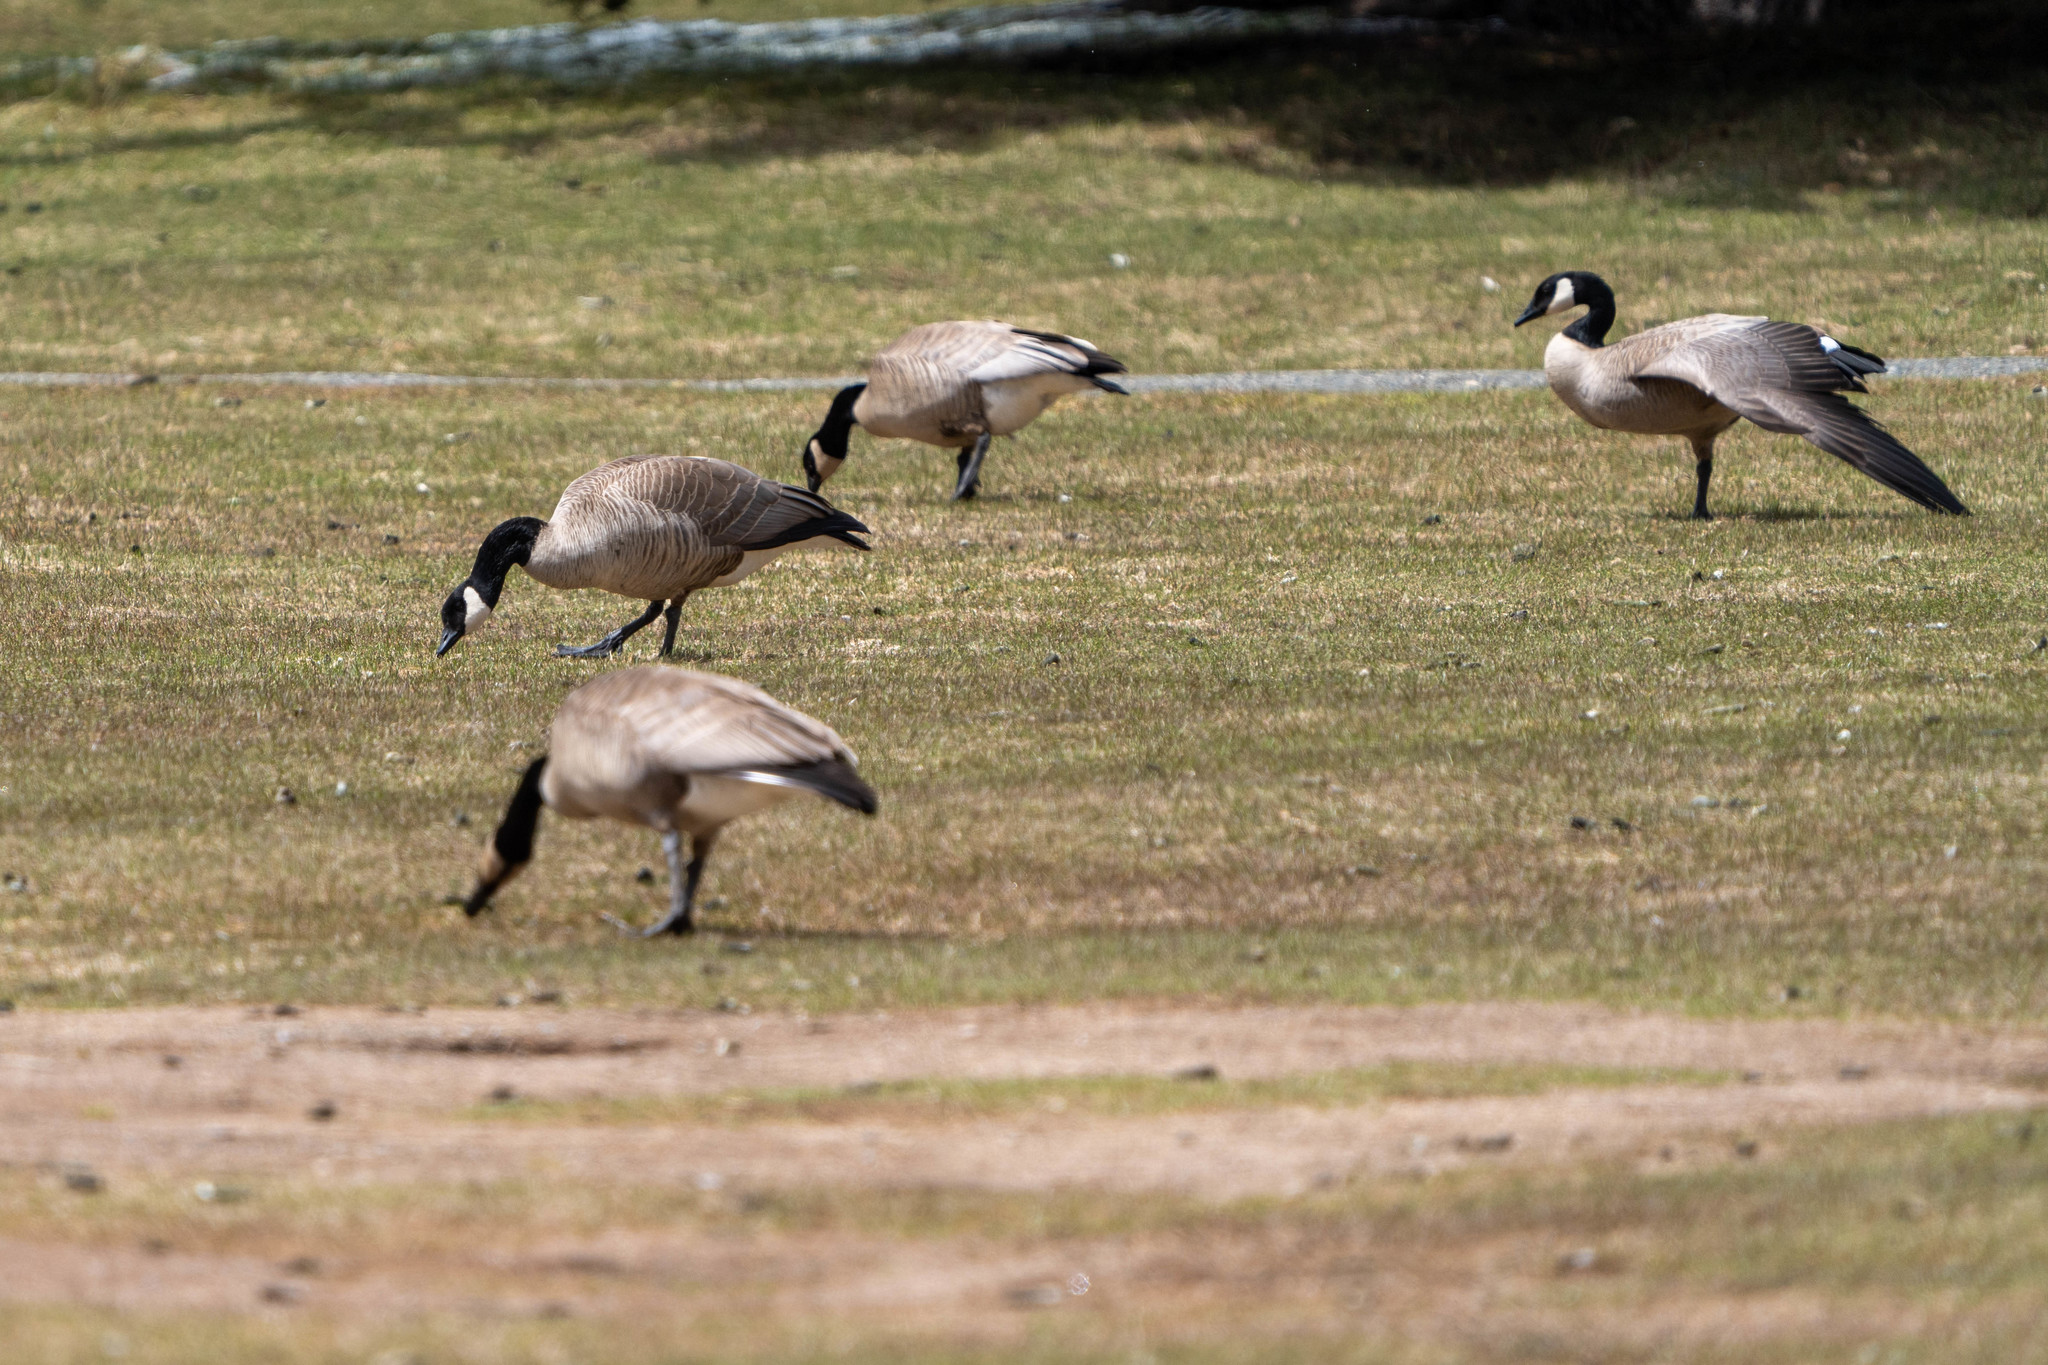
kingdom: Animalia
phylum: Chordata
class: Aves
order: Anseriformes
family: Anatidae
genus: Branta
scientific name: Branta canadensis
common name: Canada goose
